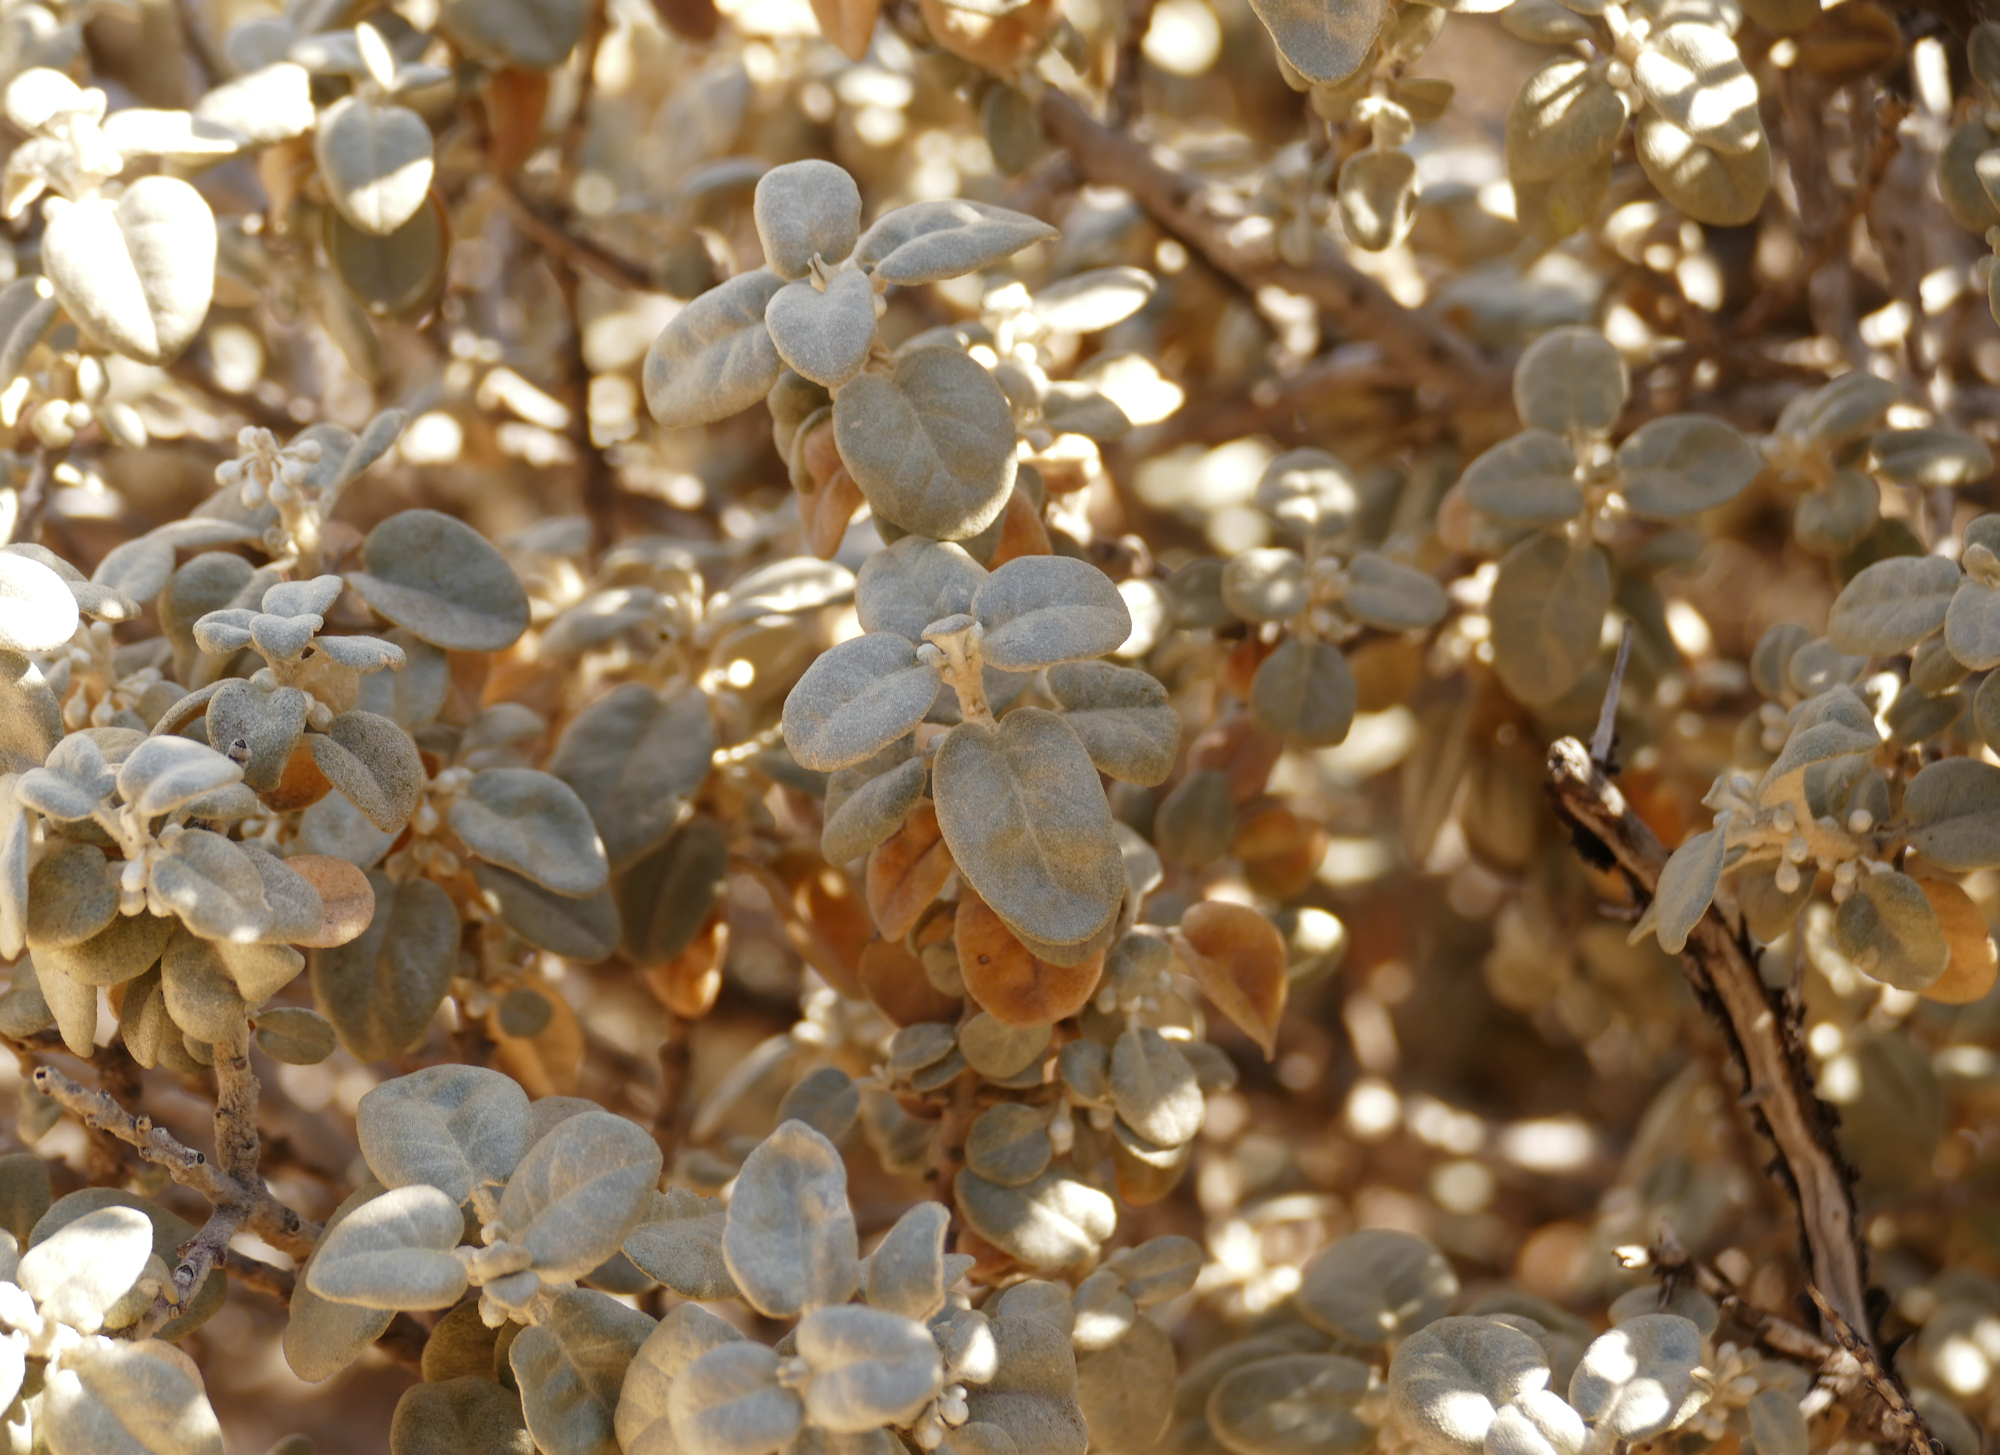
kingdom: Plantae
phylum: Tracheophyta
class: Magnoliopsida
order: Rosales
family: Elaeagnaceae
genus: Shepherdia
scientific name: Shepherdia rotundifolia
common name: Silverscale
